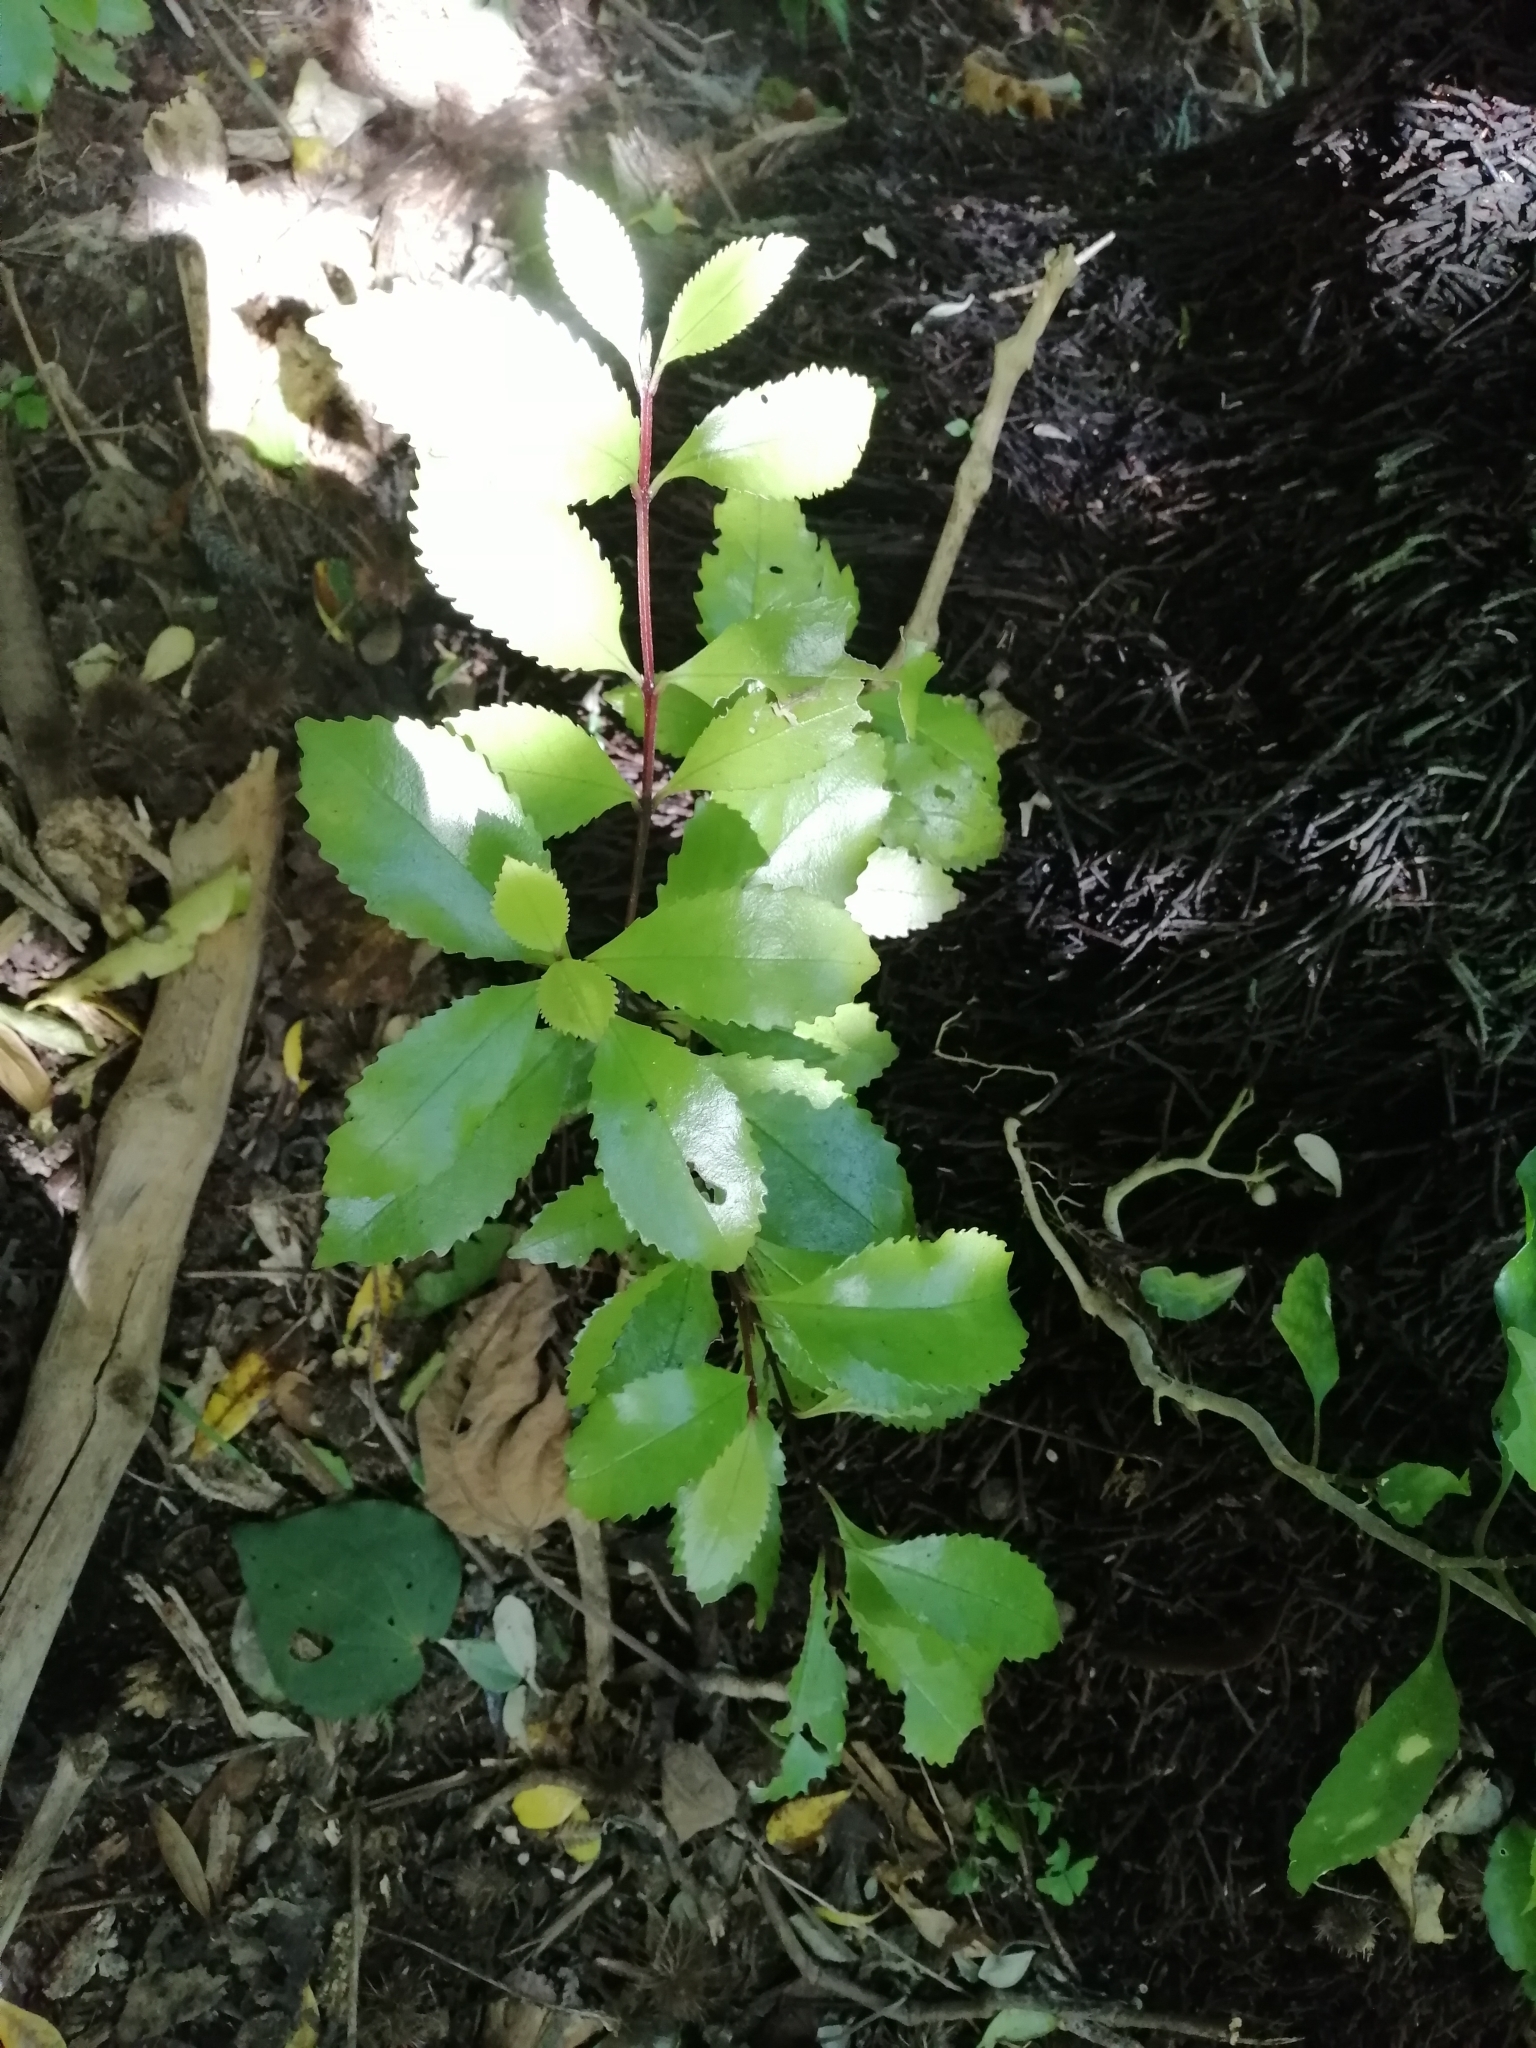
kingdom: Plantae
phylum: Tracheophyta
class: Magnoliopsida
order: Laurales
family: Atherospermataceae
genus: Laurelia
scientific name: Laurelia novae-zelandiae
